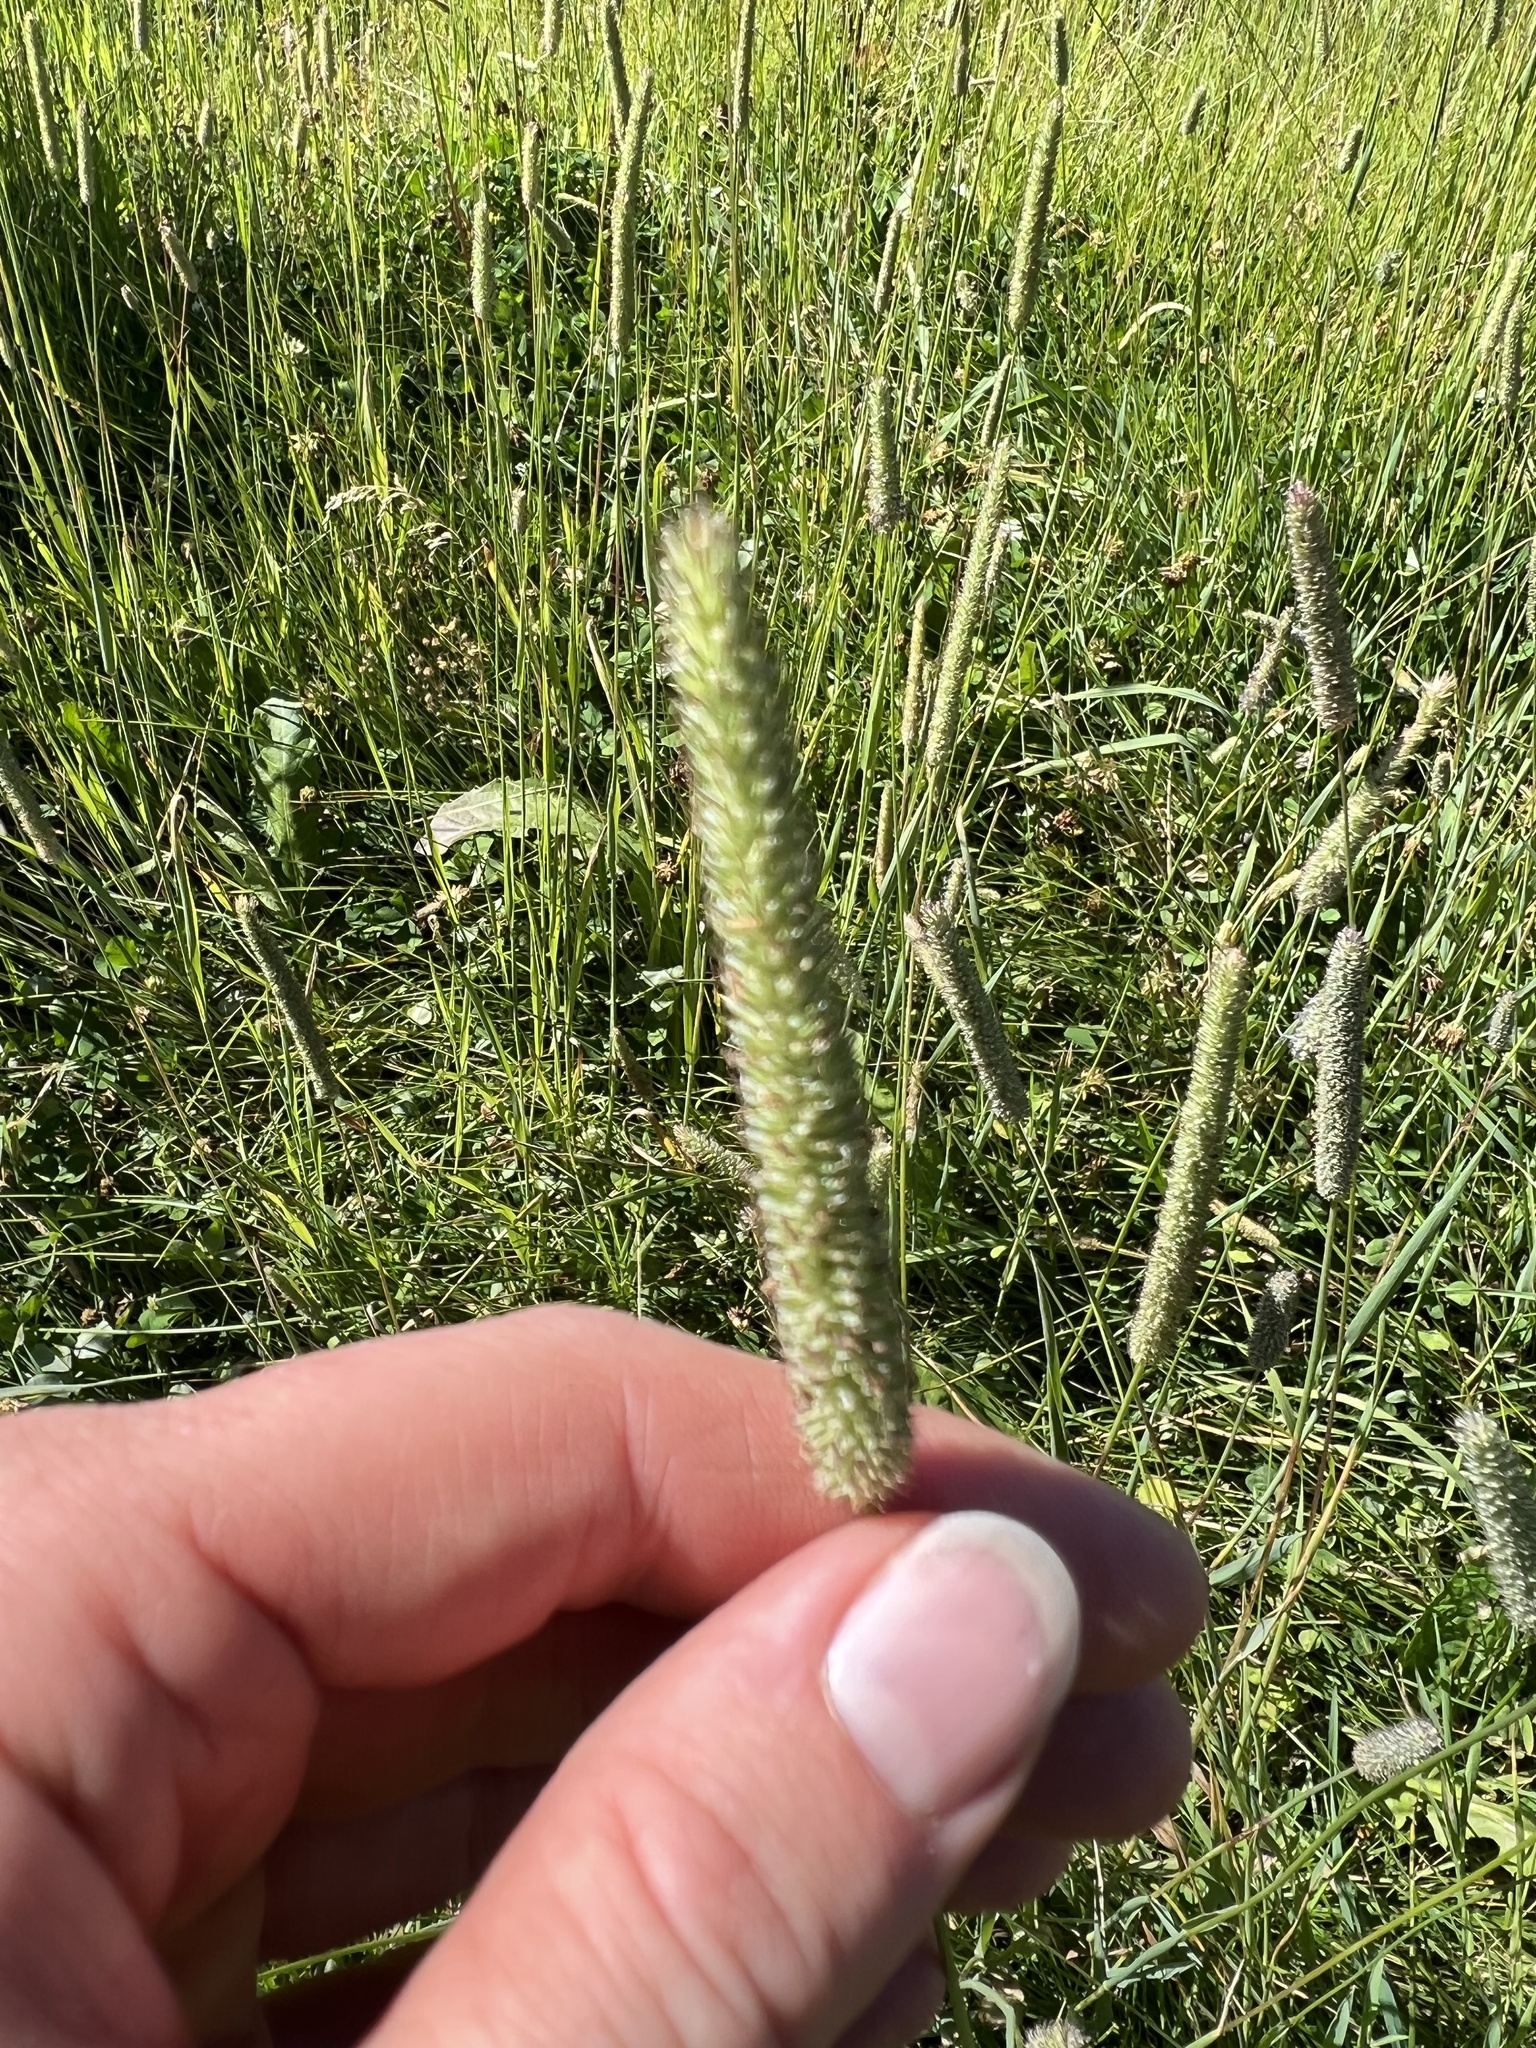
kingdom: Plantae
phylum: Tracheophyta
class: Liliopsida
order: Poales
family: Poaceae
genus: Phleum
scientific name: Phleum pratense
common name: Timothy grass
